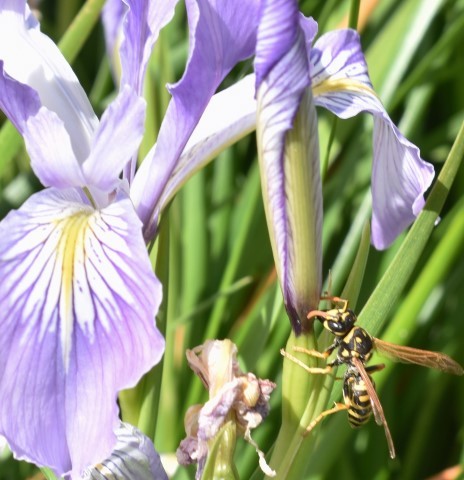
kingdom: Animalia
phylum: Arthropoda
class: Insecta
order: Hymenoptera
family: Eumenidae
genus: Polistes
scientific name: Polistes dominula
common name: Paper wasp
